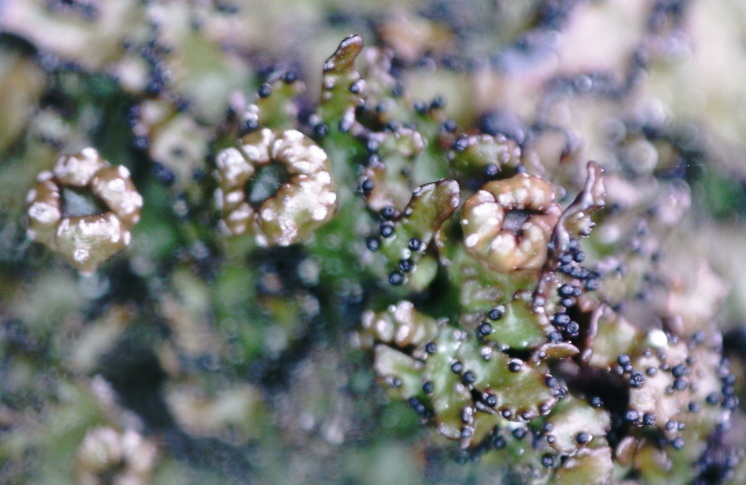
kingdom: Fungi
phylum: Ascomycota
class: Lecanoromycetes
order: Lecanorales
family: Parmeliaceae
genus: Melanelia
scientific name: Melanelia hepatizon
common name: Rimmed camouflage lichen
